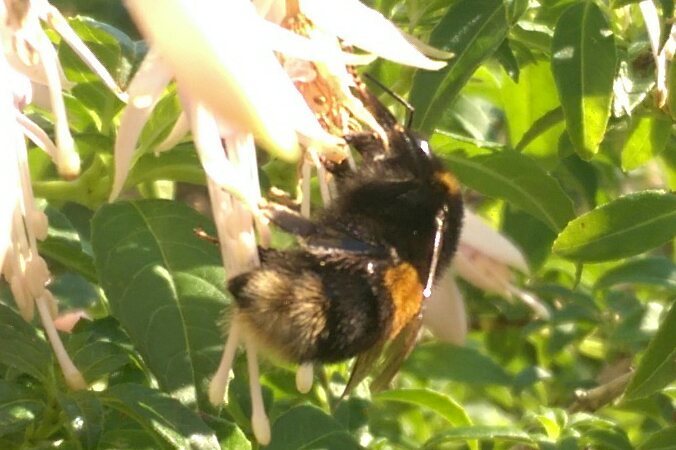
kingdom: Animalia
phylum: Arthropoda
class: Insecta
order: Hymenoptera
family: Apidae
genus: Bombus
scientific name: Bombus terrestris
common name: Buff-tailed bumblebee
